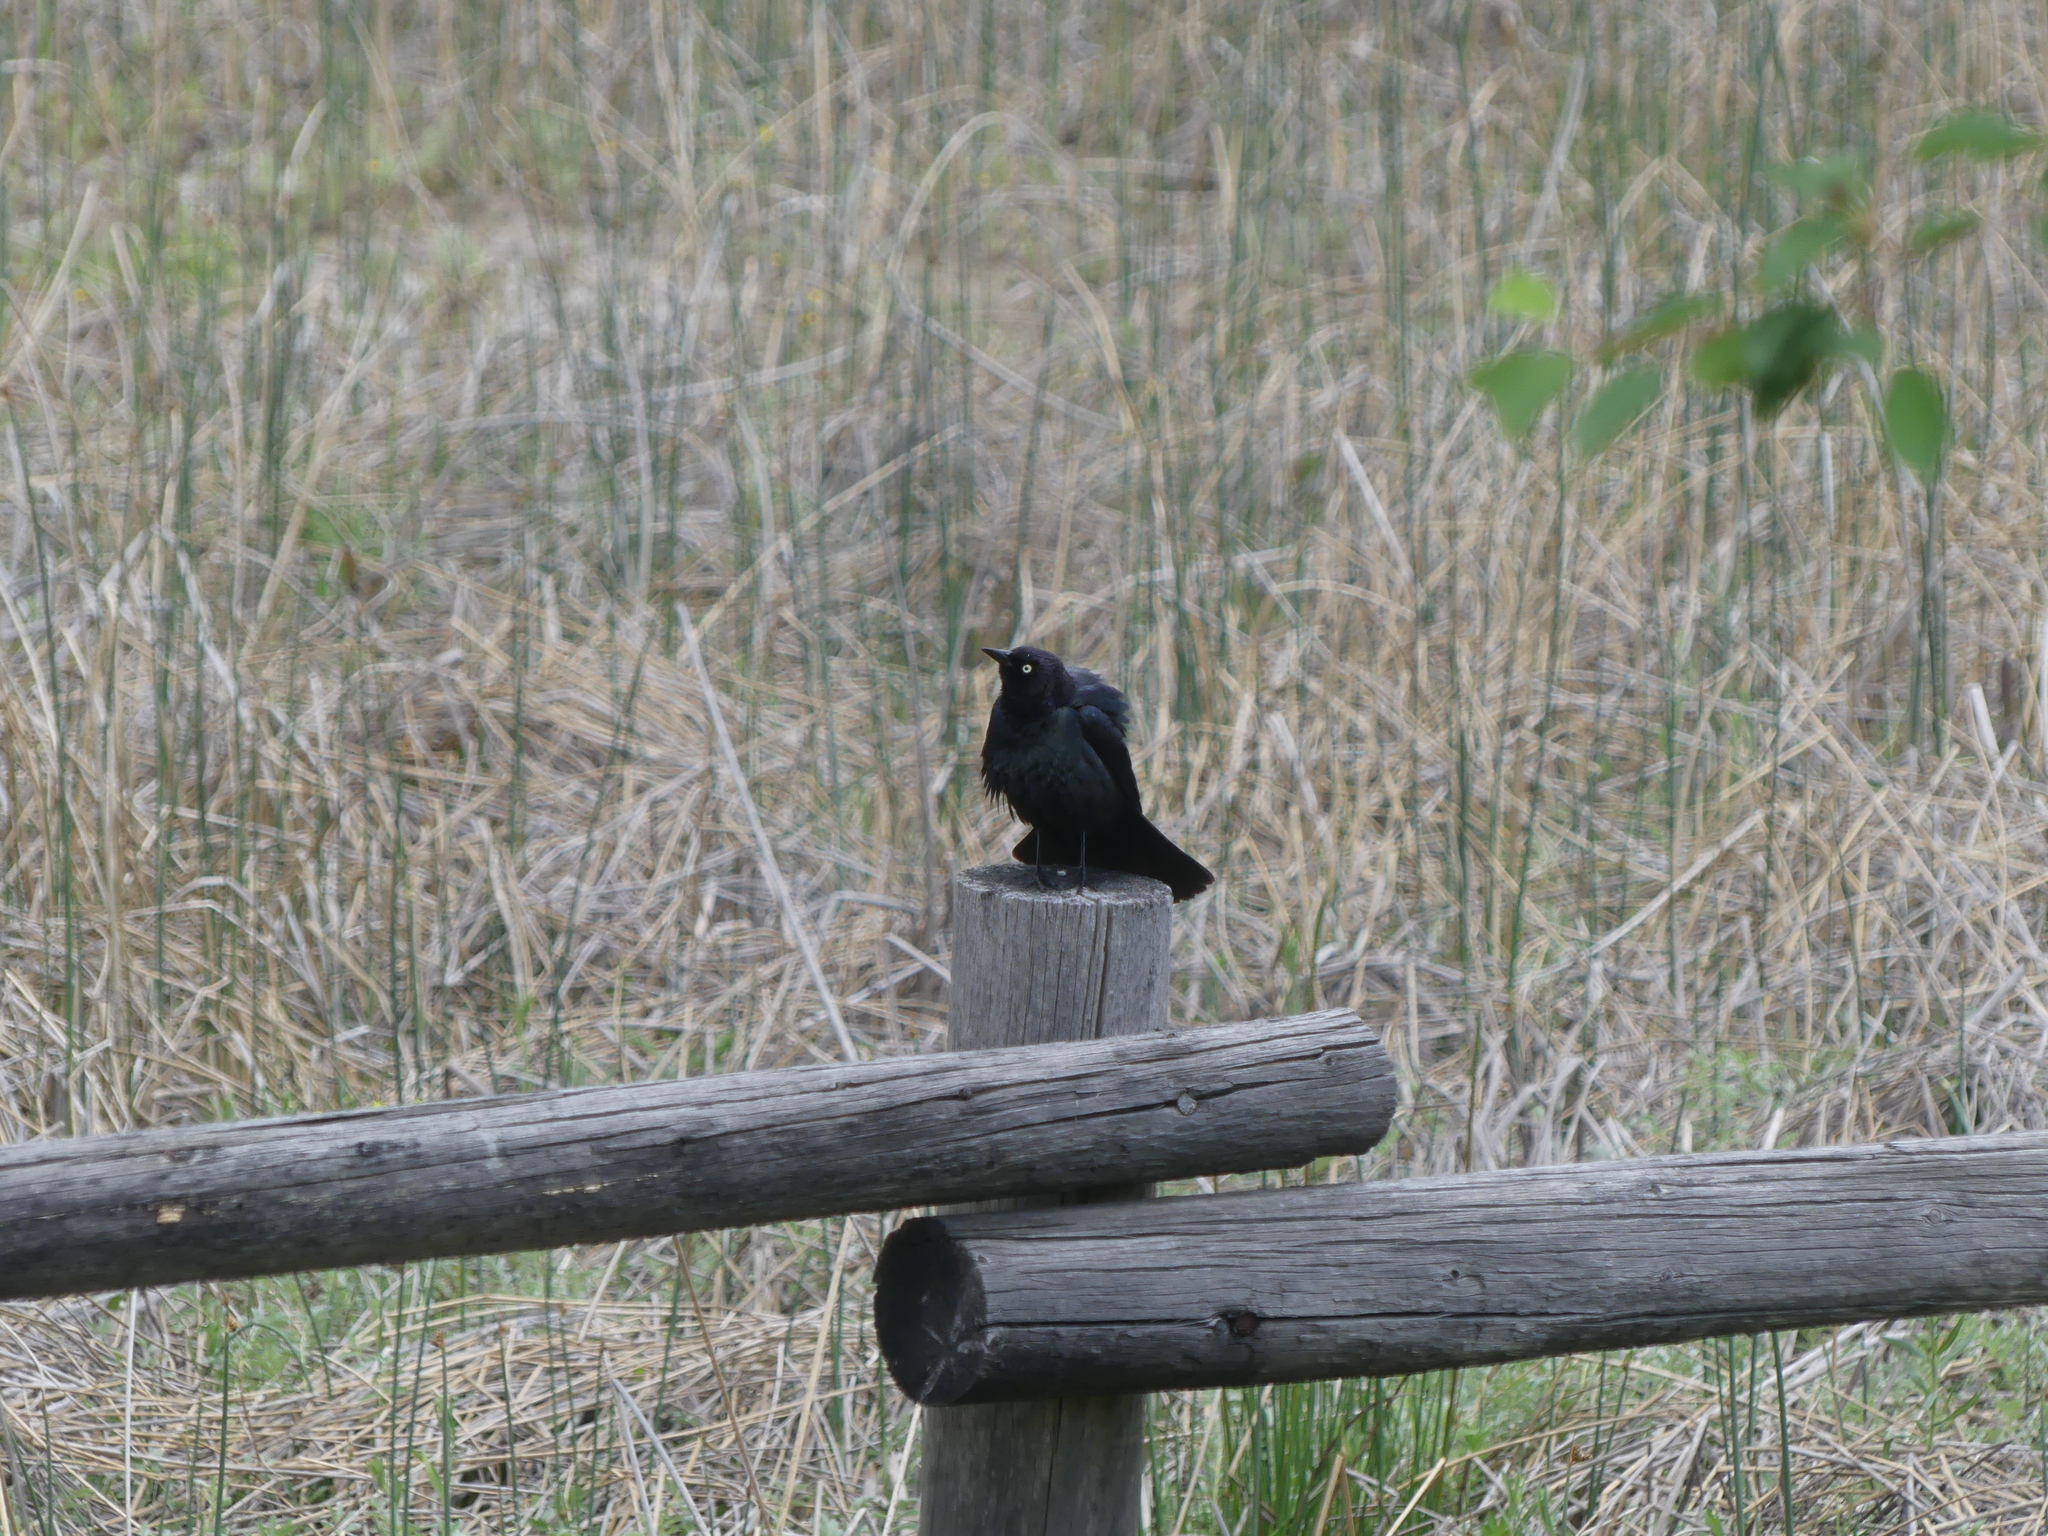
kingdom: Animalia
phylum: Chordata
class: Aves
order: Passeriformes
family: Icteridae
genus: Euphagus
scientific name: Euphagus cyanocephalus
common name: Brewer's blackbird
